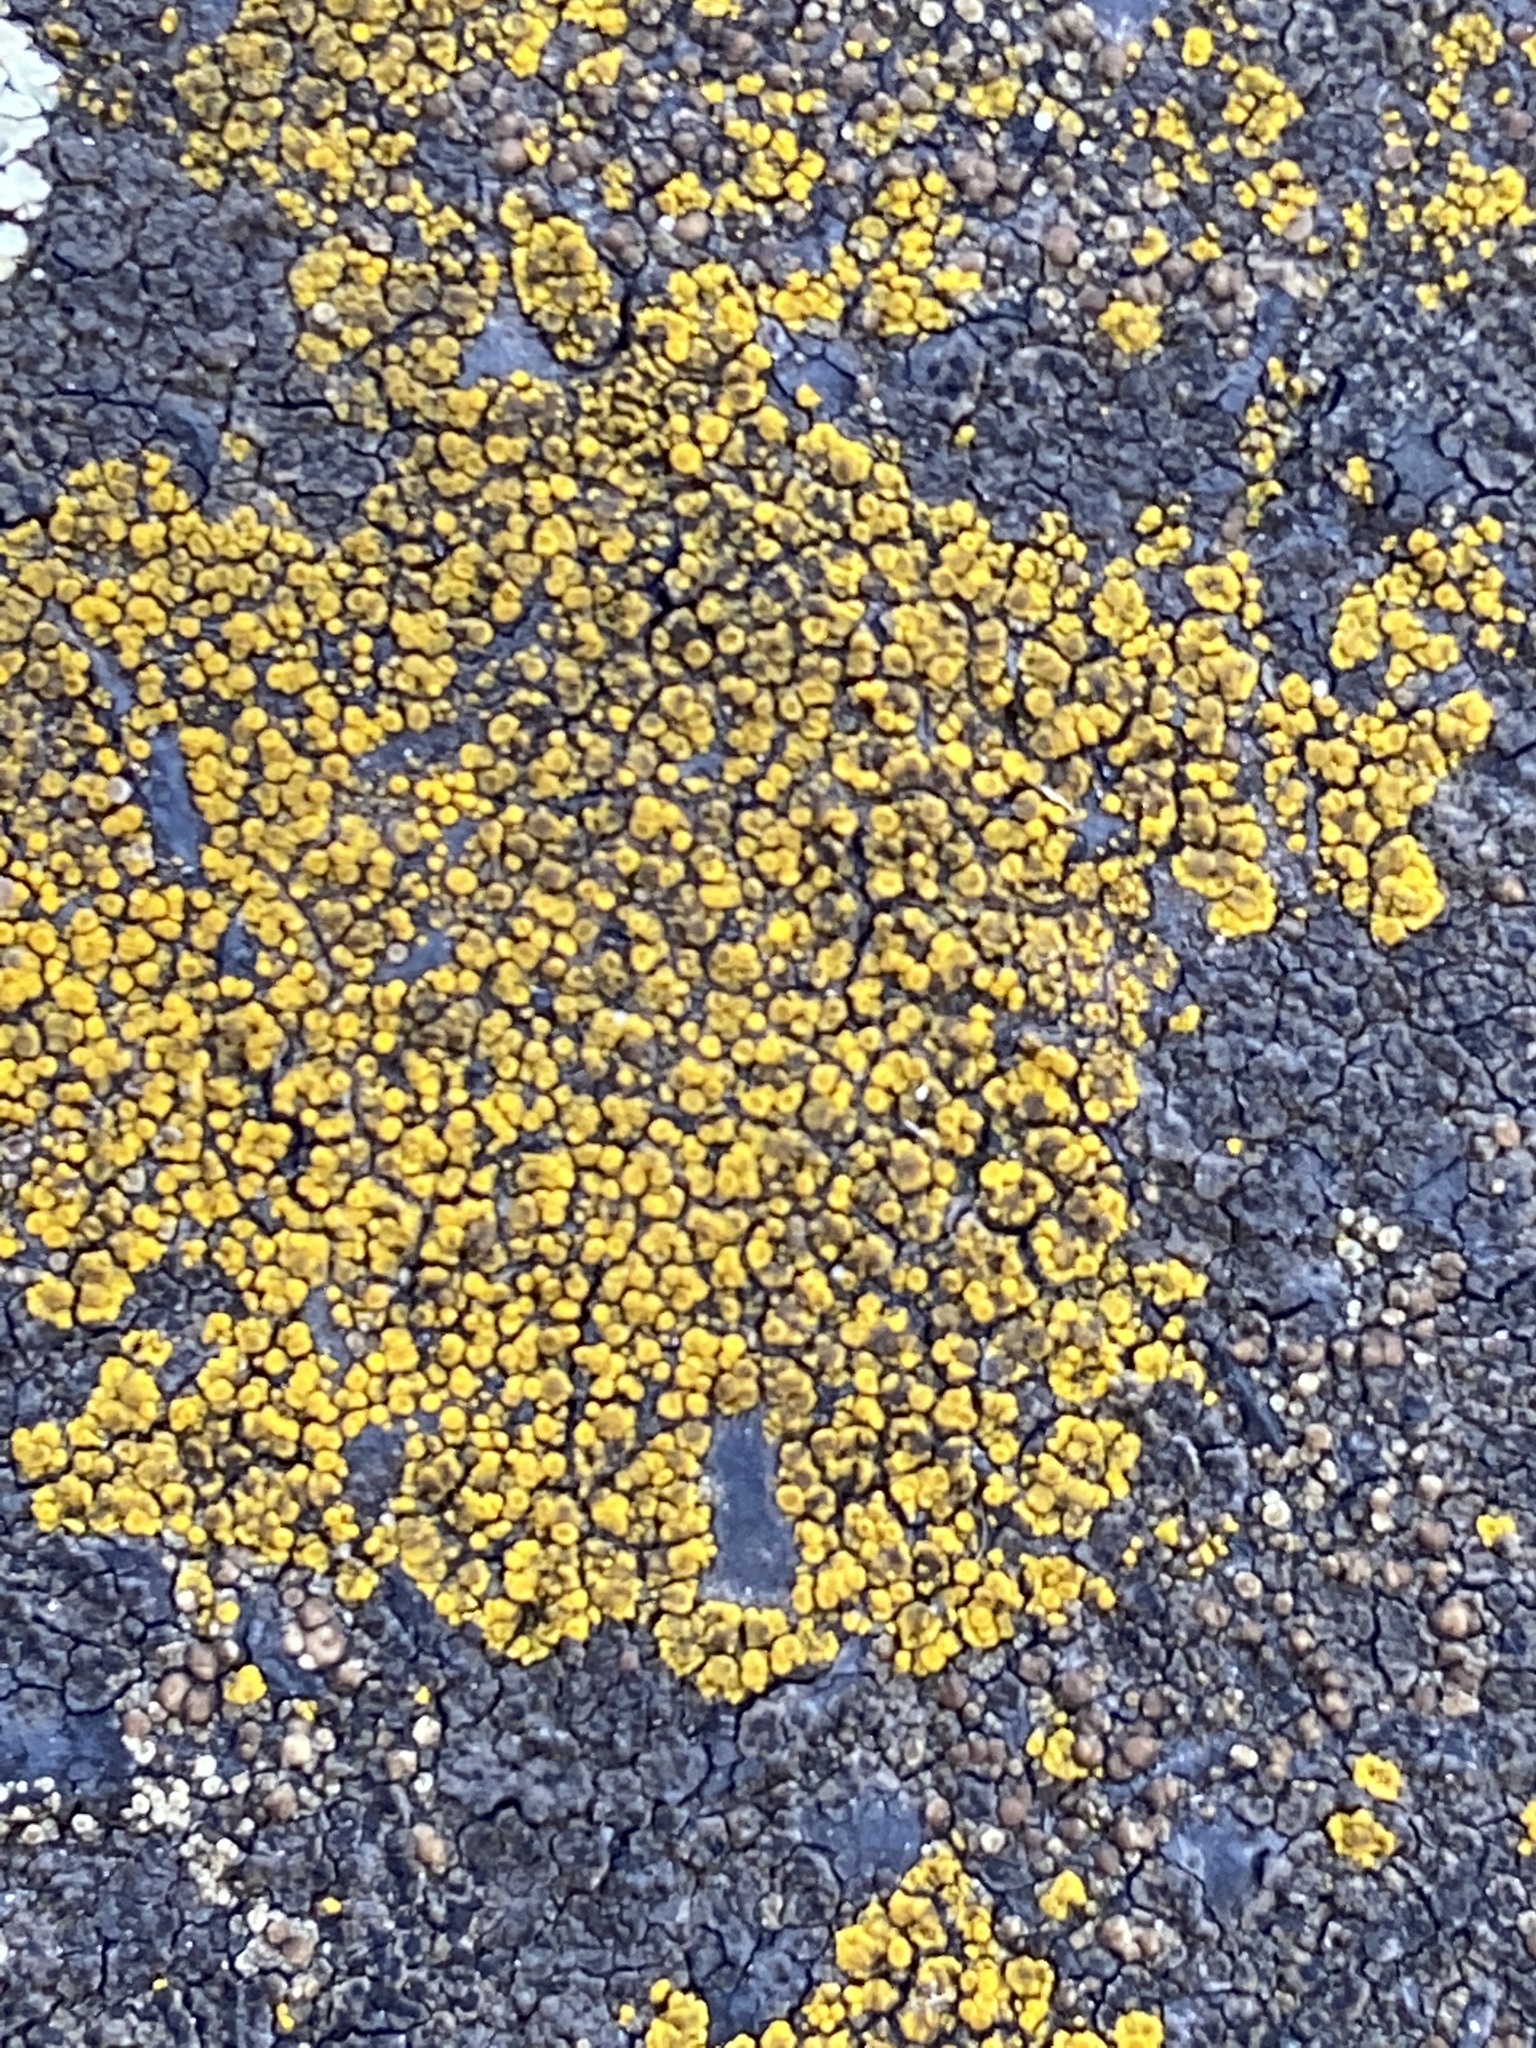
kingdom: Fungi
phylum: Ascomycota
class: Candelariomycetes
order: Candelariales
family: Candelariaceae
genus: Candelariella
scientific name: Candelariella vitellina
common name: Common goldspeck
